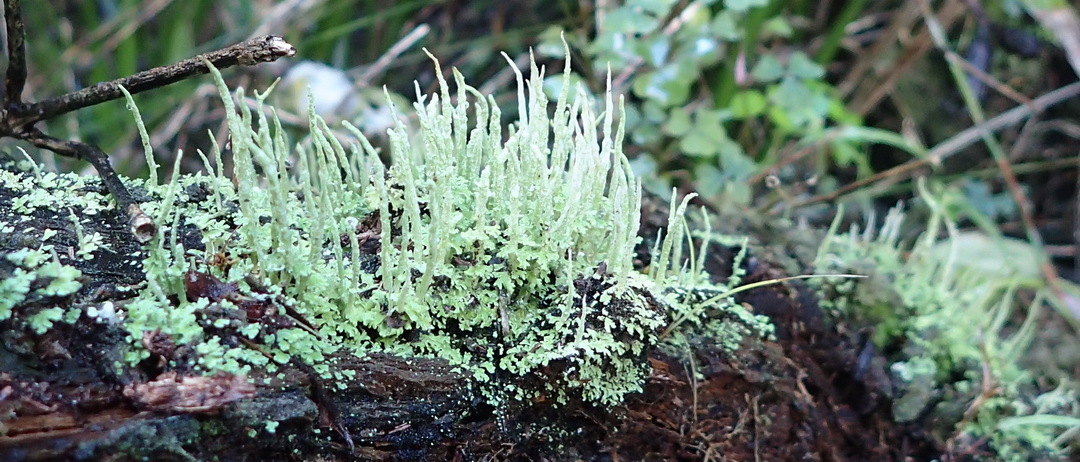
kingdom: Fungi
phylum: Ascomycota
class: Lecanoromycetes
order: Lecanorales
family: Cladoniaceae
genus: Cladonia
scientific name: Cladonia ochrochlora
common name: Smooth-footed powderhorn
